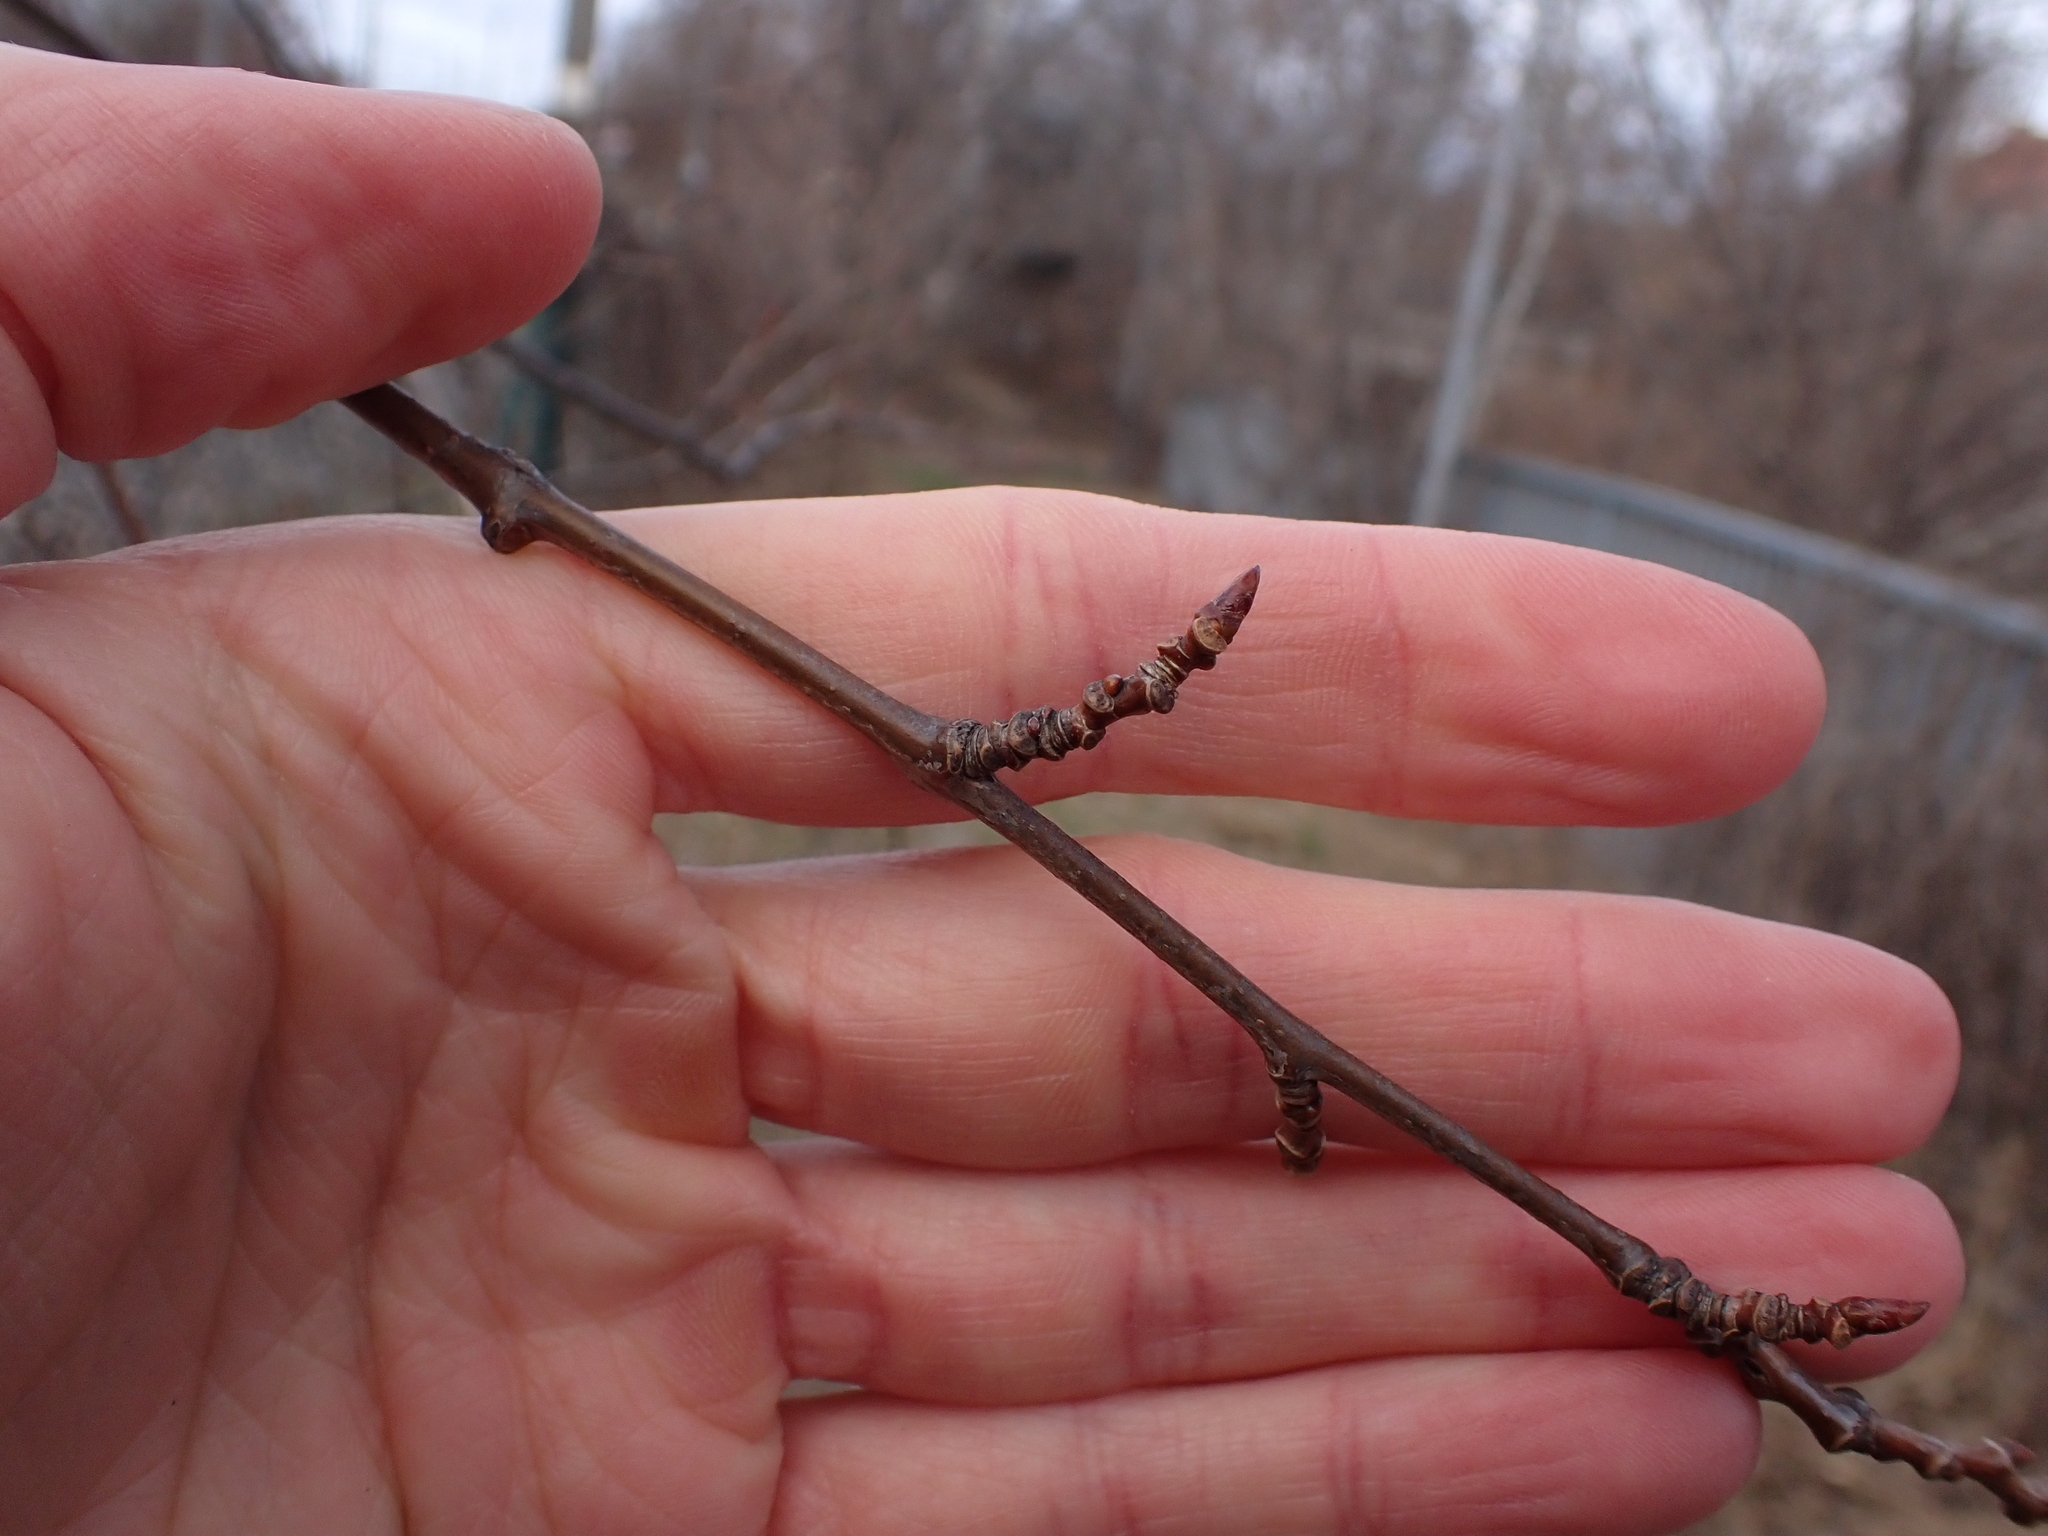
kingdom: Plantae
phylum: Tracheophyta
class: Magnoliopsida
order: Malpighiales
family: Salicaceae
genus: Populus
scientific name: Populus tremula
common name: European aspen
